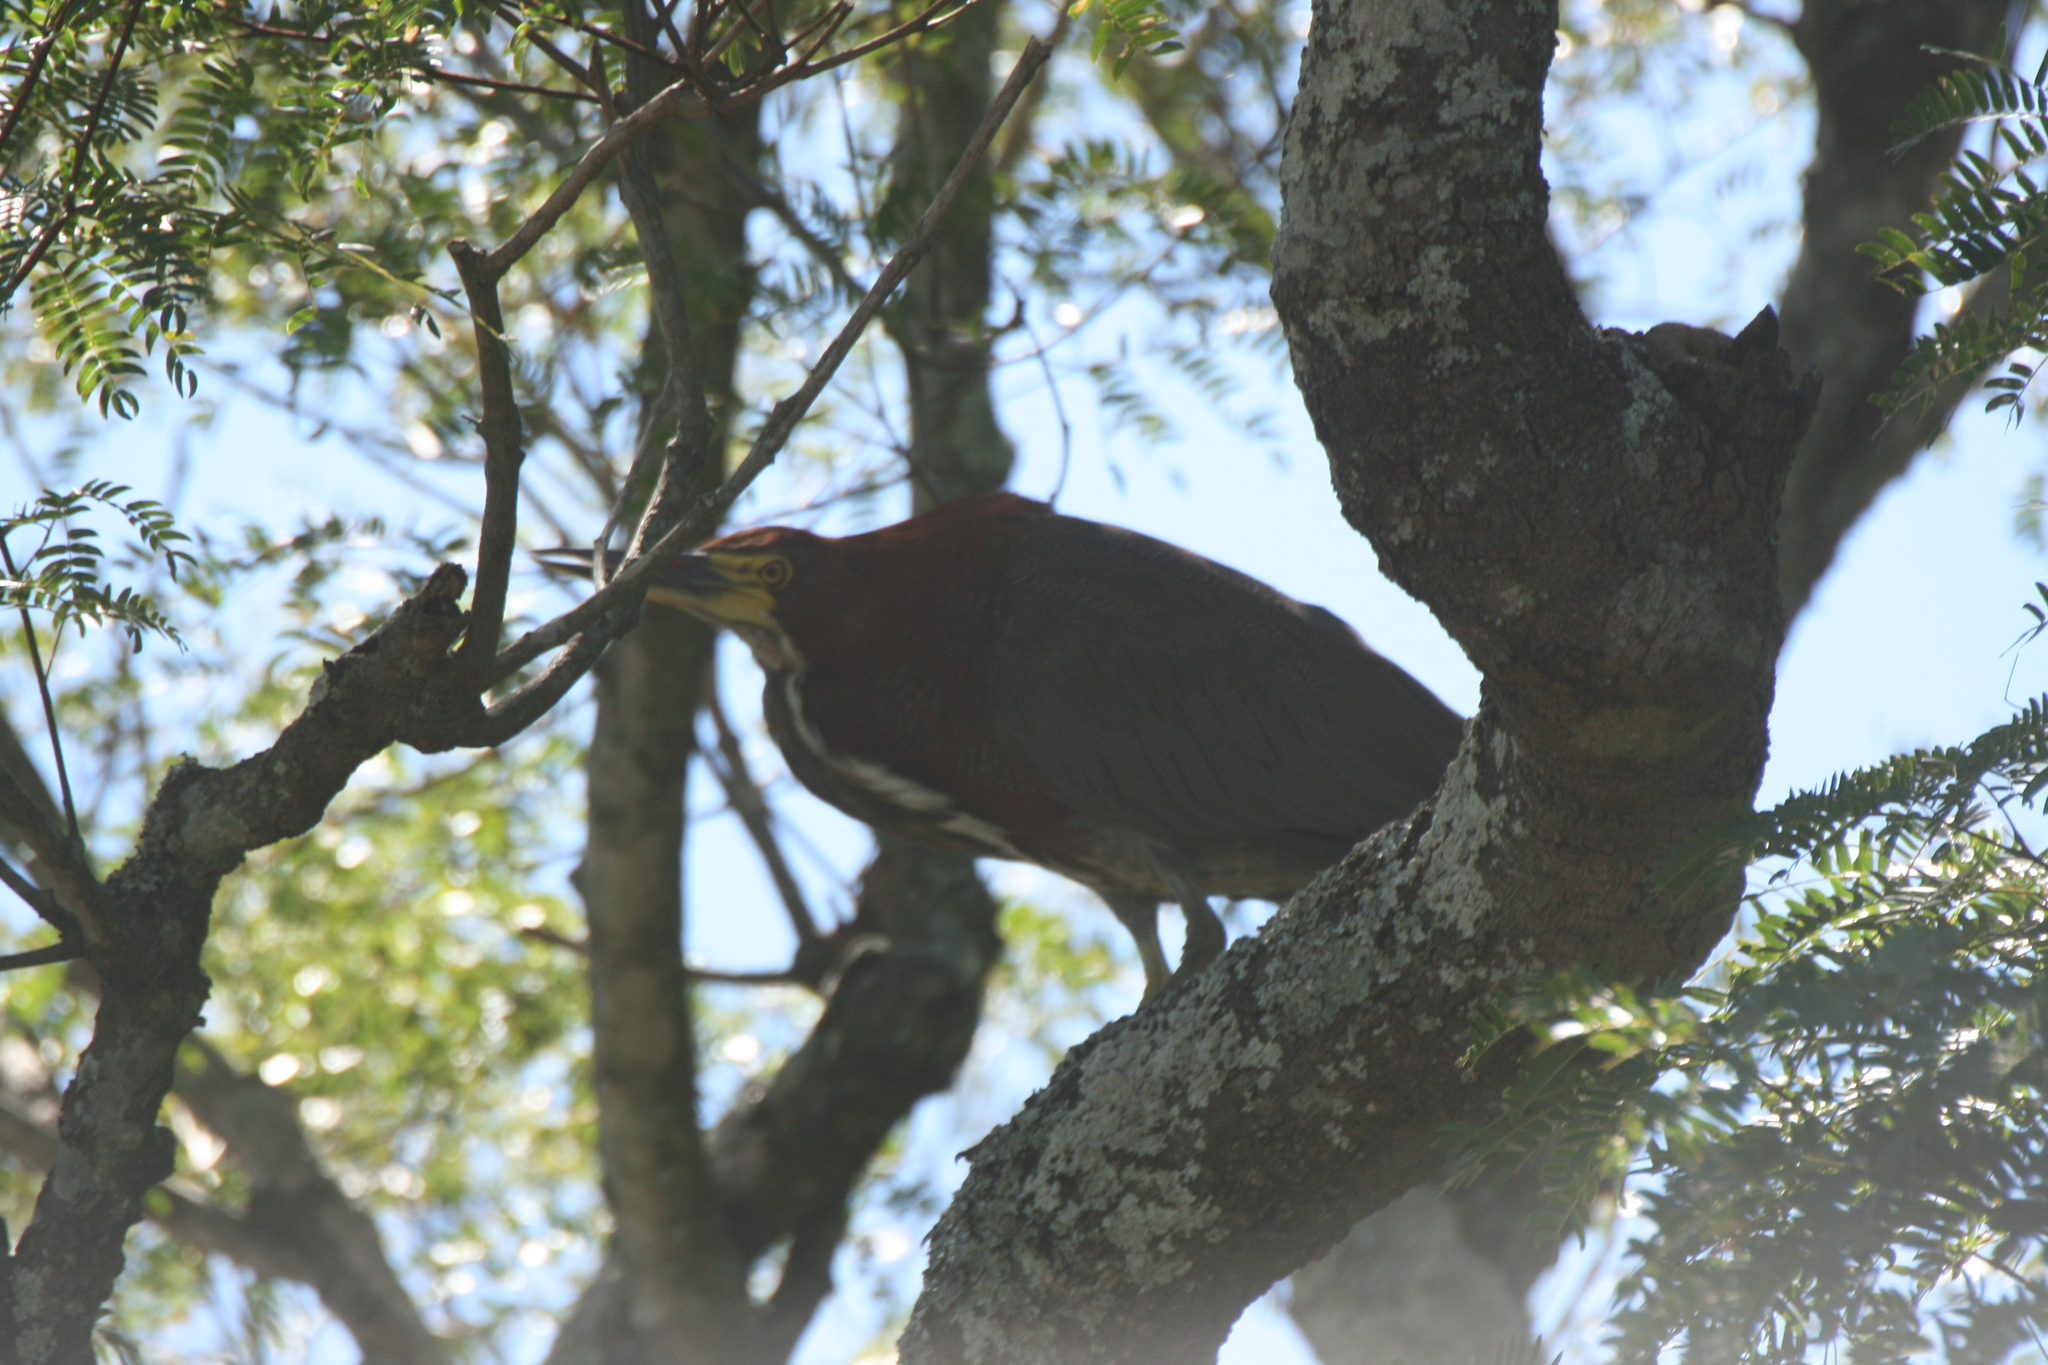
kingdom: Animalia
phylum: Chordata
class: Aves
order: Pelecaniformes
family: Ardeidae
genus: Tigrisoma
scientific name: Tigrisoma lineatum
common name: Rufescent tiger-heron
